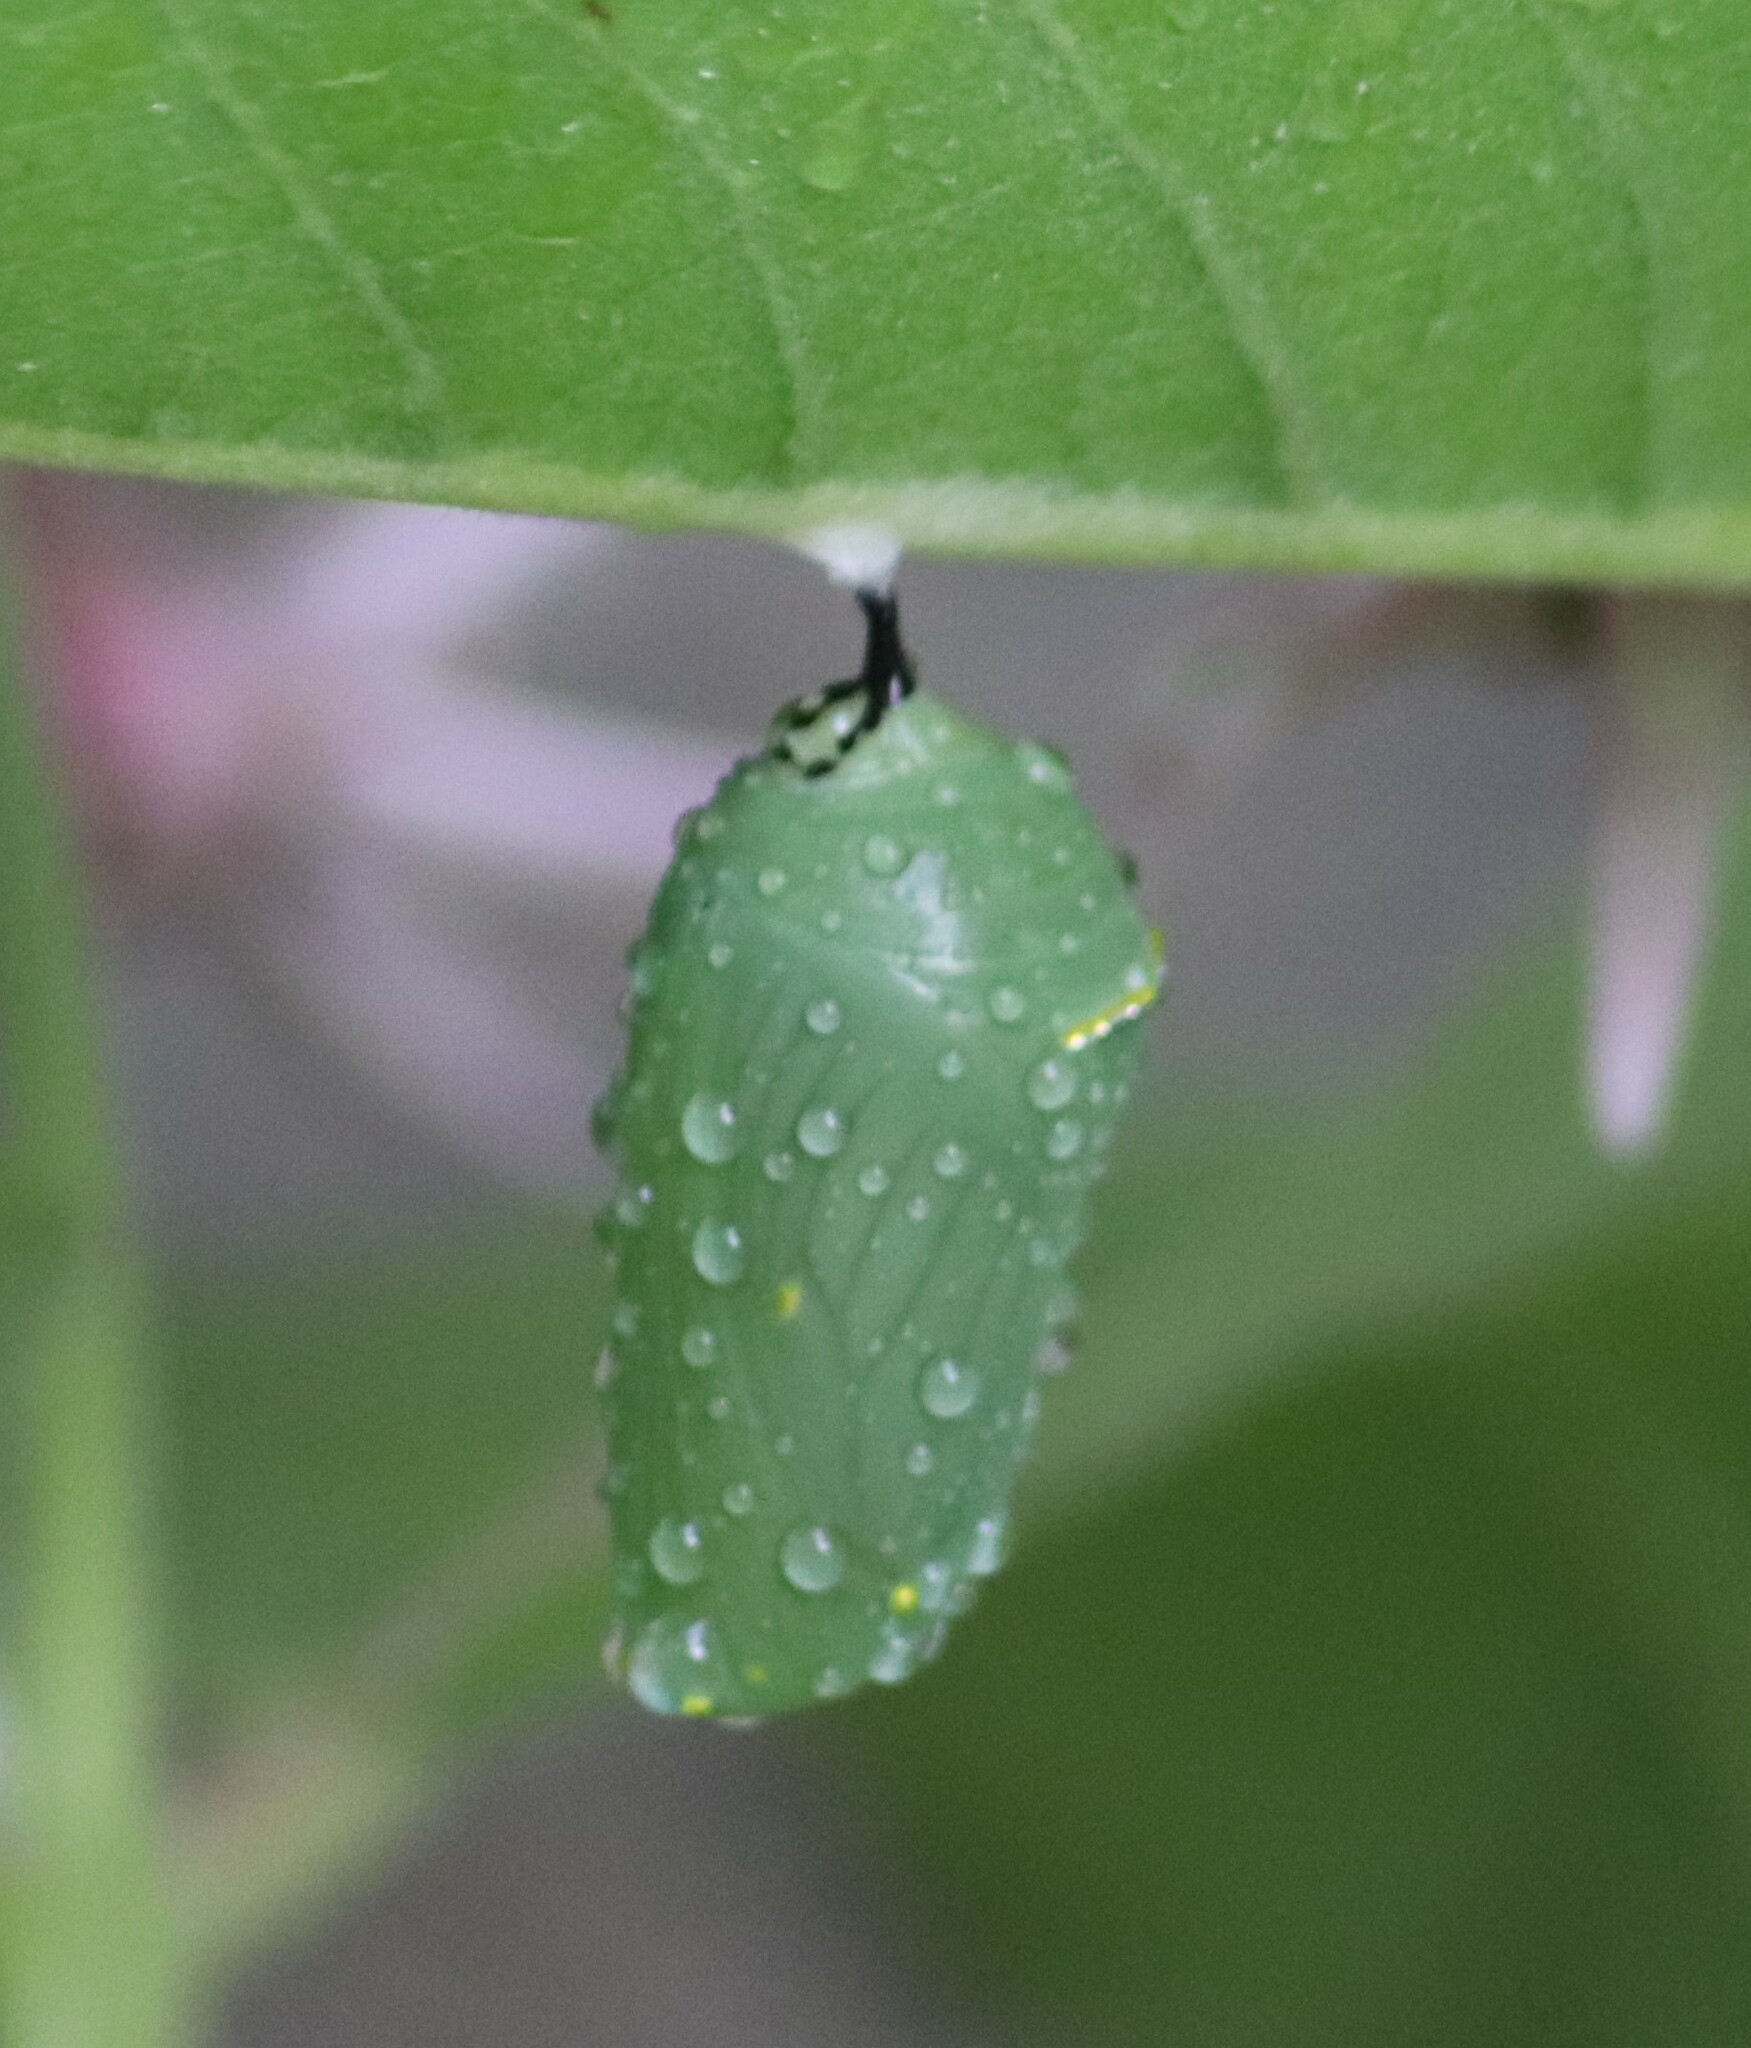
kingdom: Animalia
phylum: Arthropoda
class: Insecta
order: Lepidoptera
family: Nymphalidae
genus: Danaus
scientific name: Danaus plexippus
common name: Monarch
